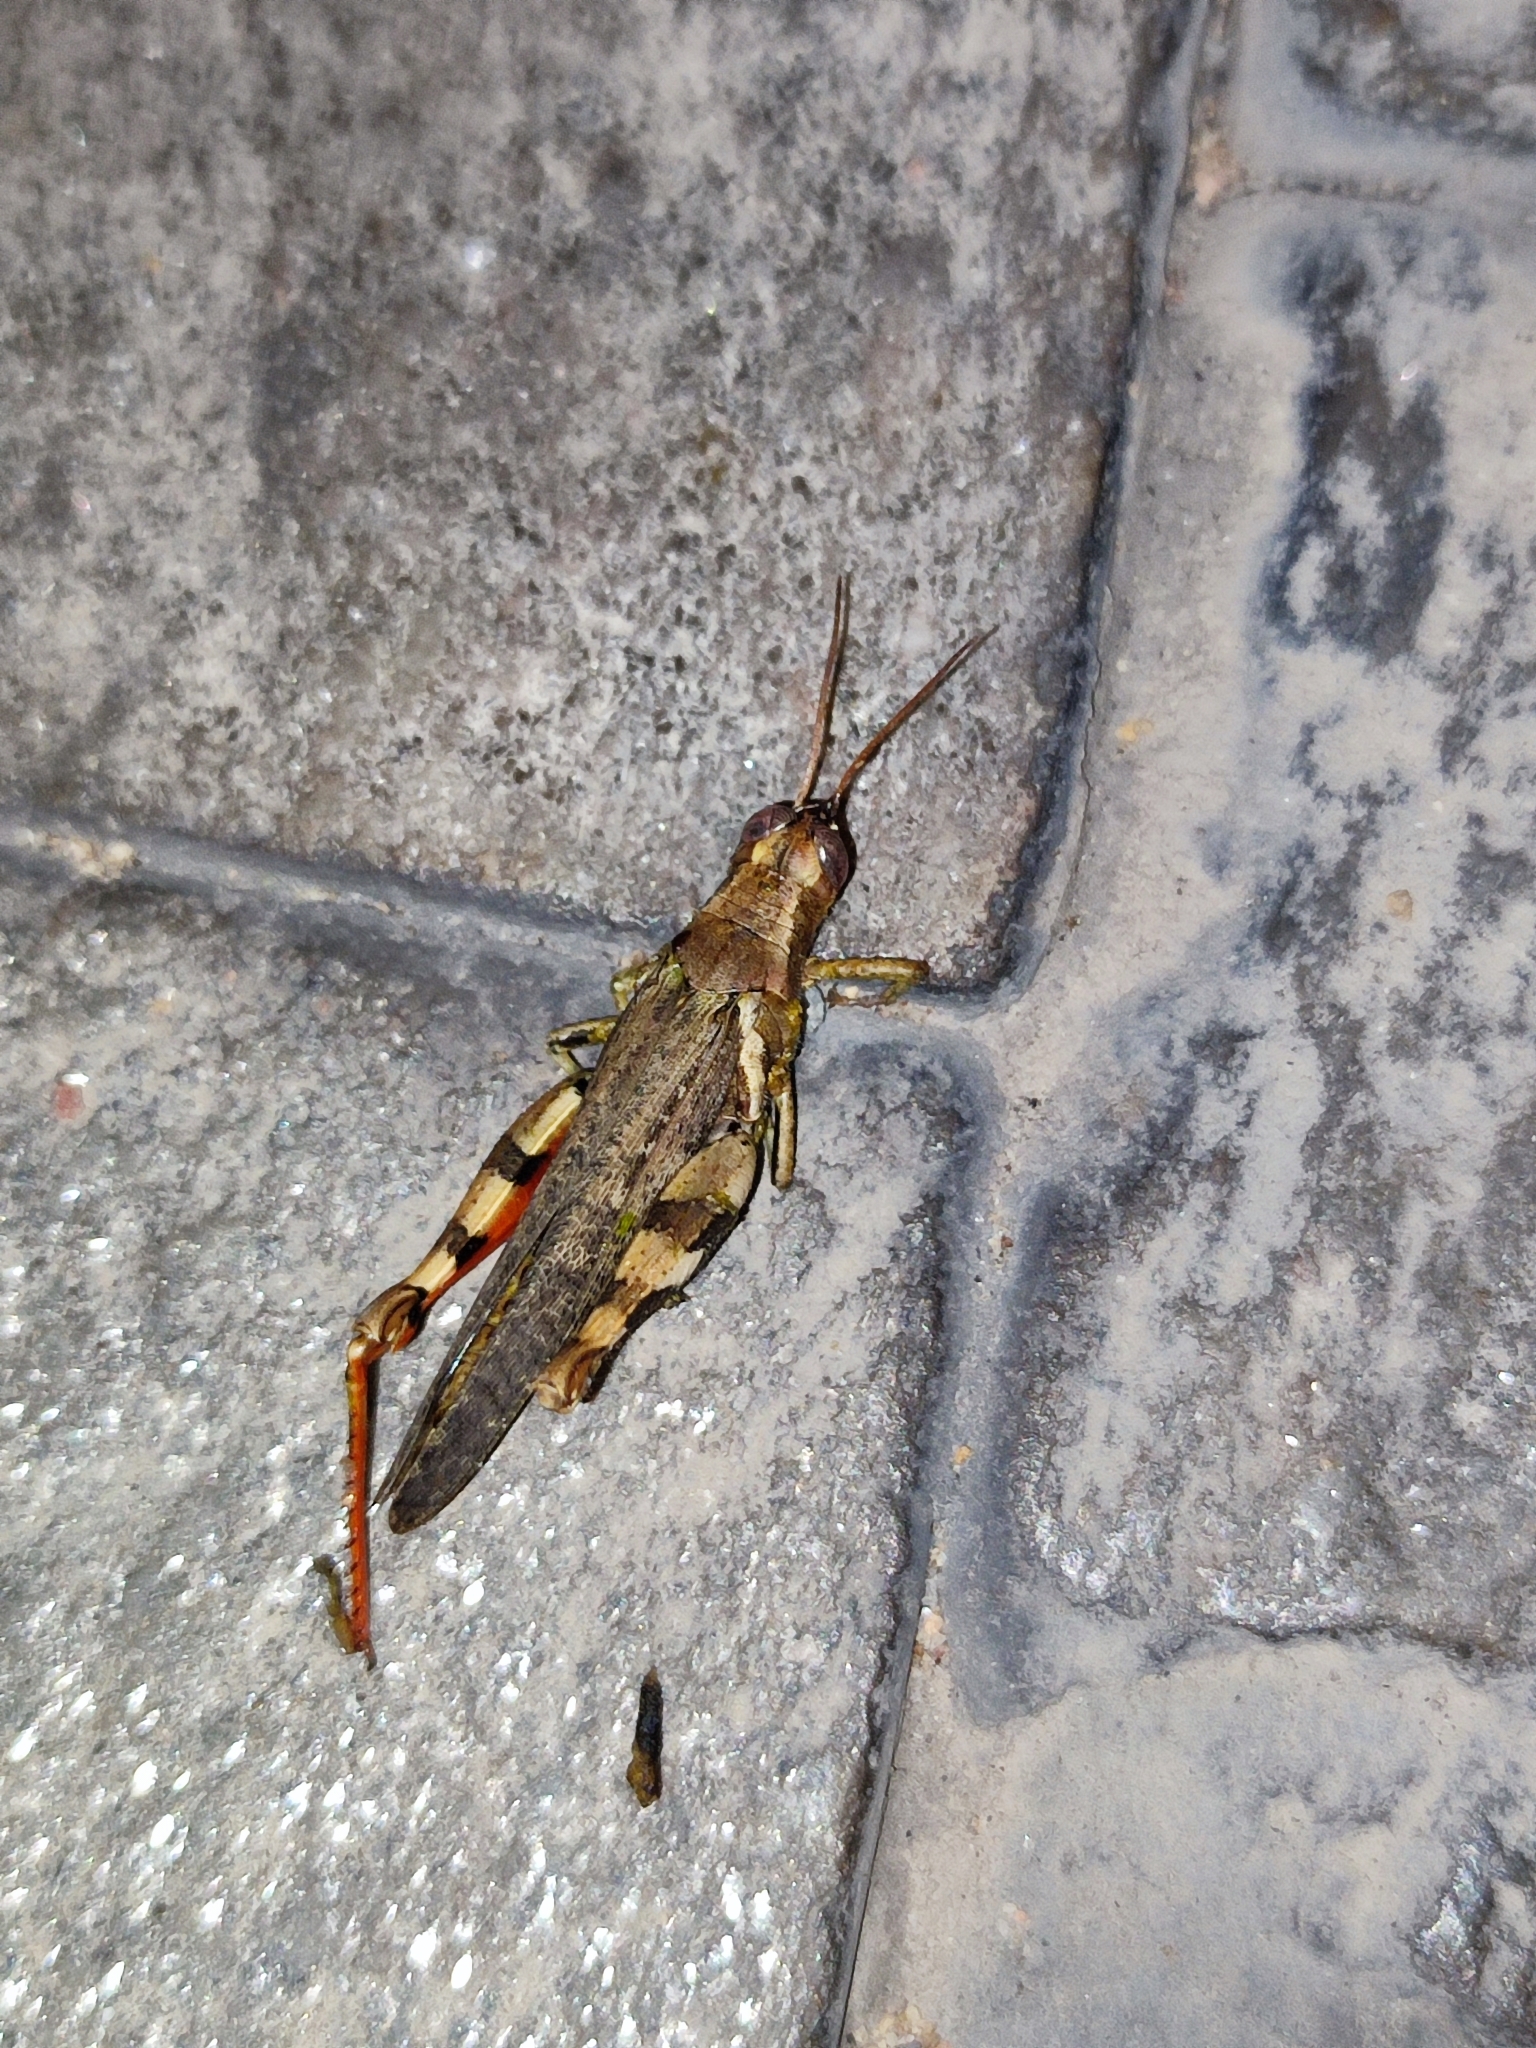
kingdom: Animalia
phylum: Arthropoda
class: Insecta
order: Orthoptera
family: Acrididae
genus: Xenocatantops
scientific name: Xenocatantops humile
